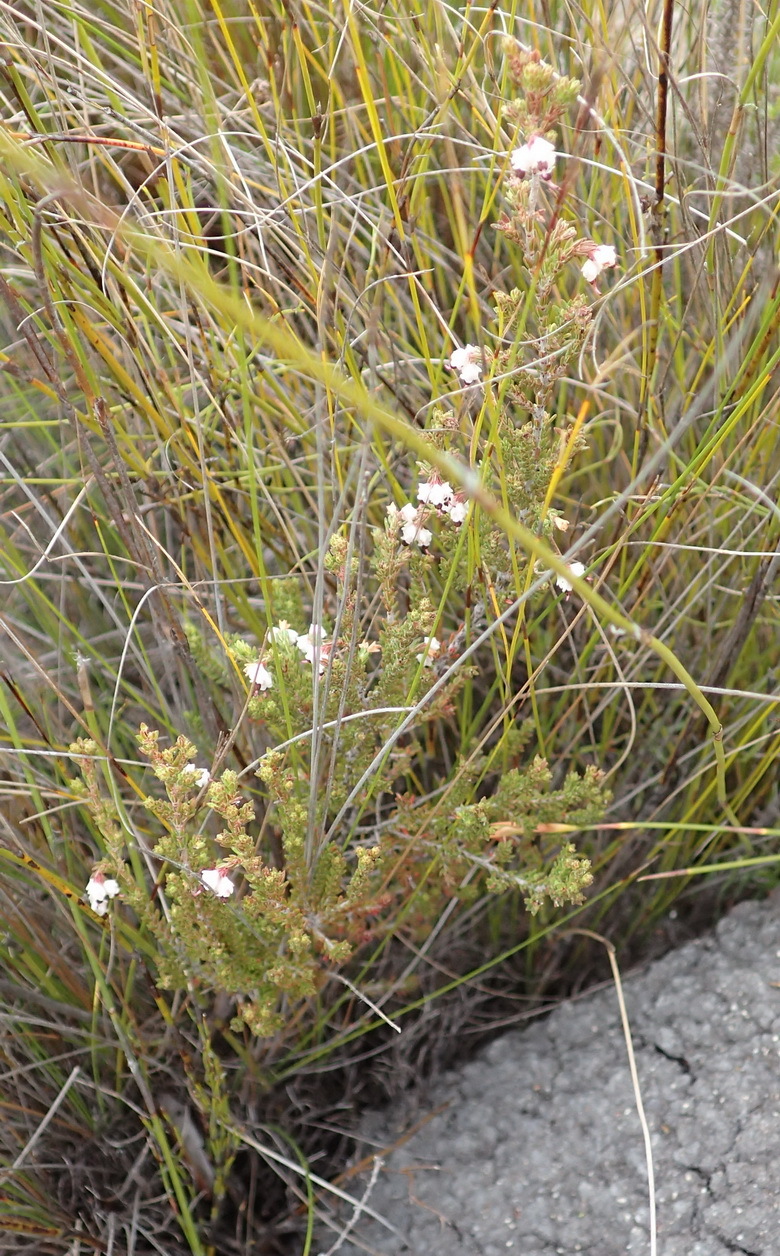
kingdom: Plantae
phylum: Tracheophyta
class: Magnoliopsida
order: Ericales
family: Ericaceae
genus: Erica
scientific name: Erica triceps
